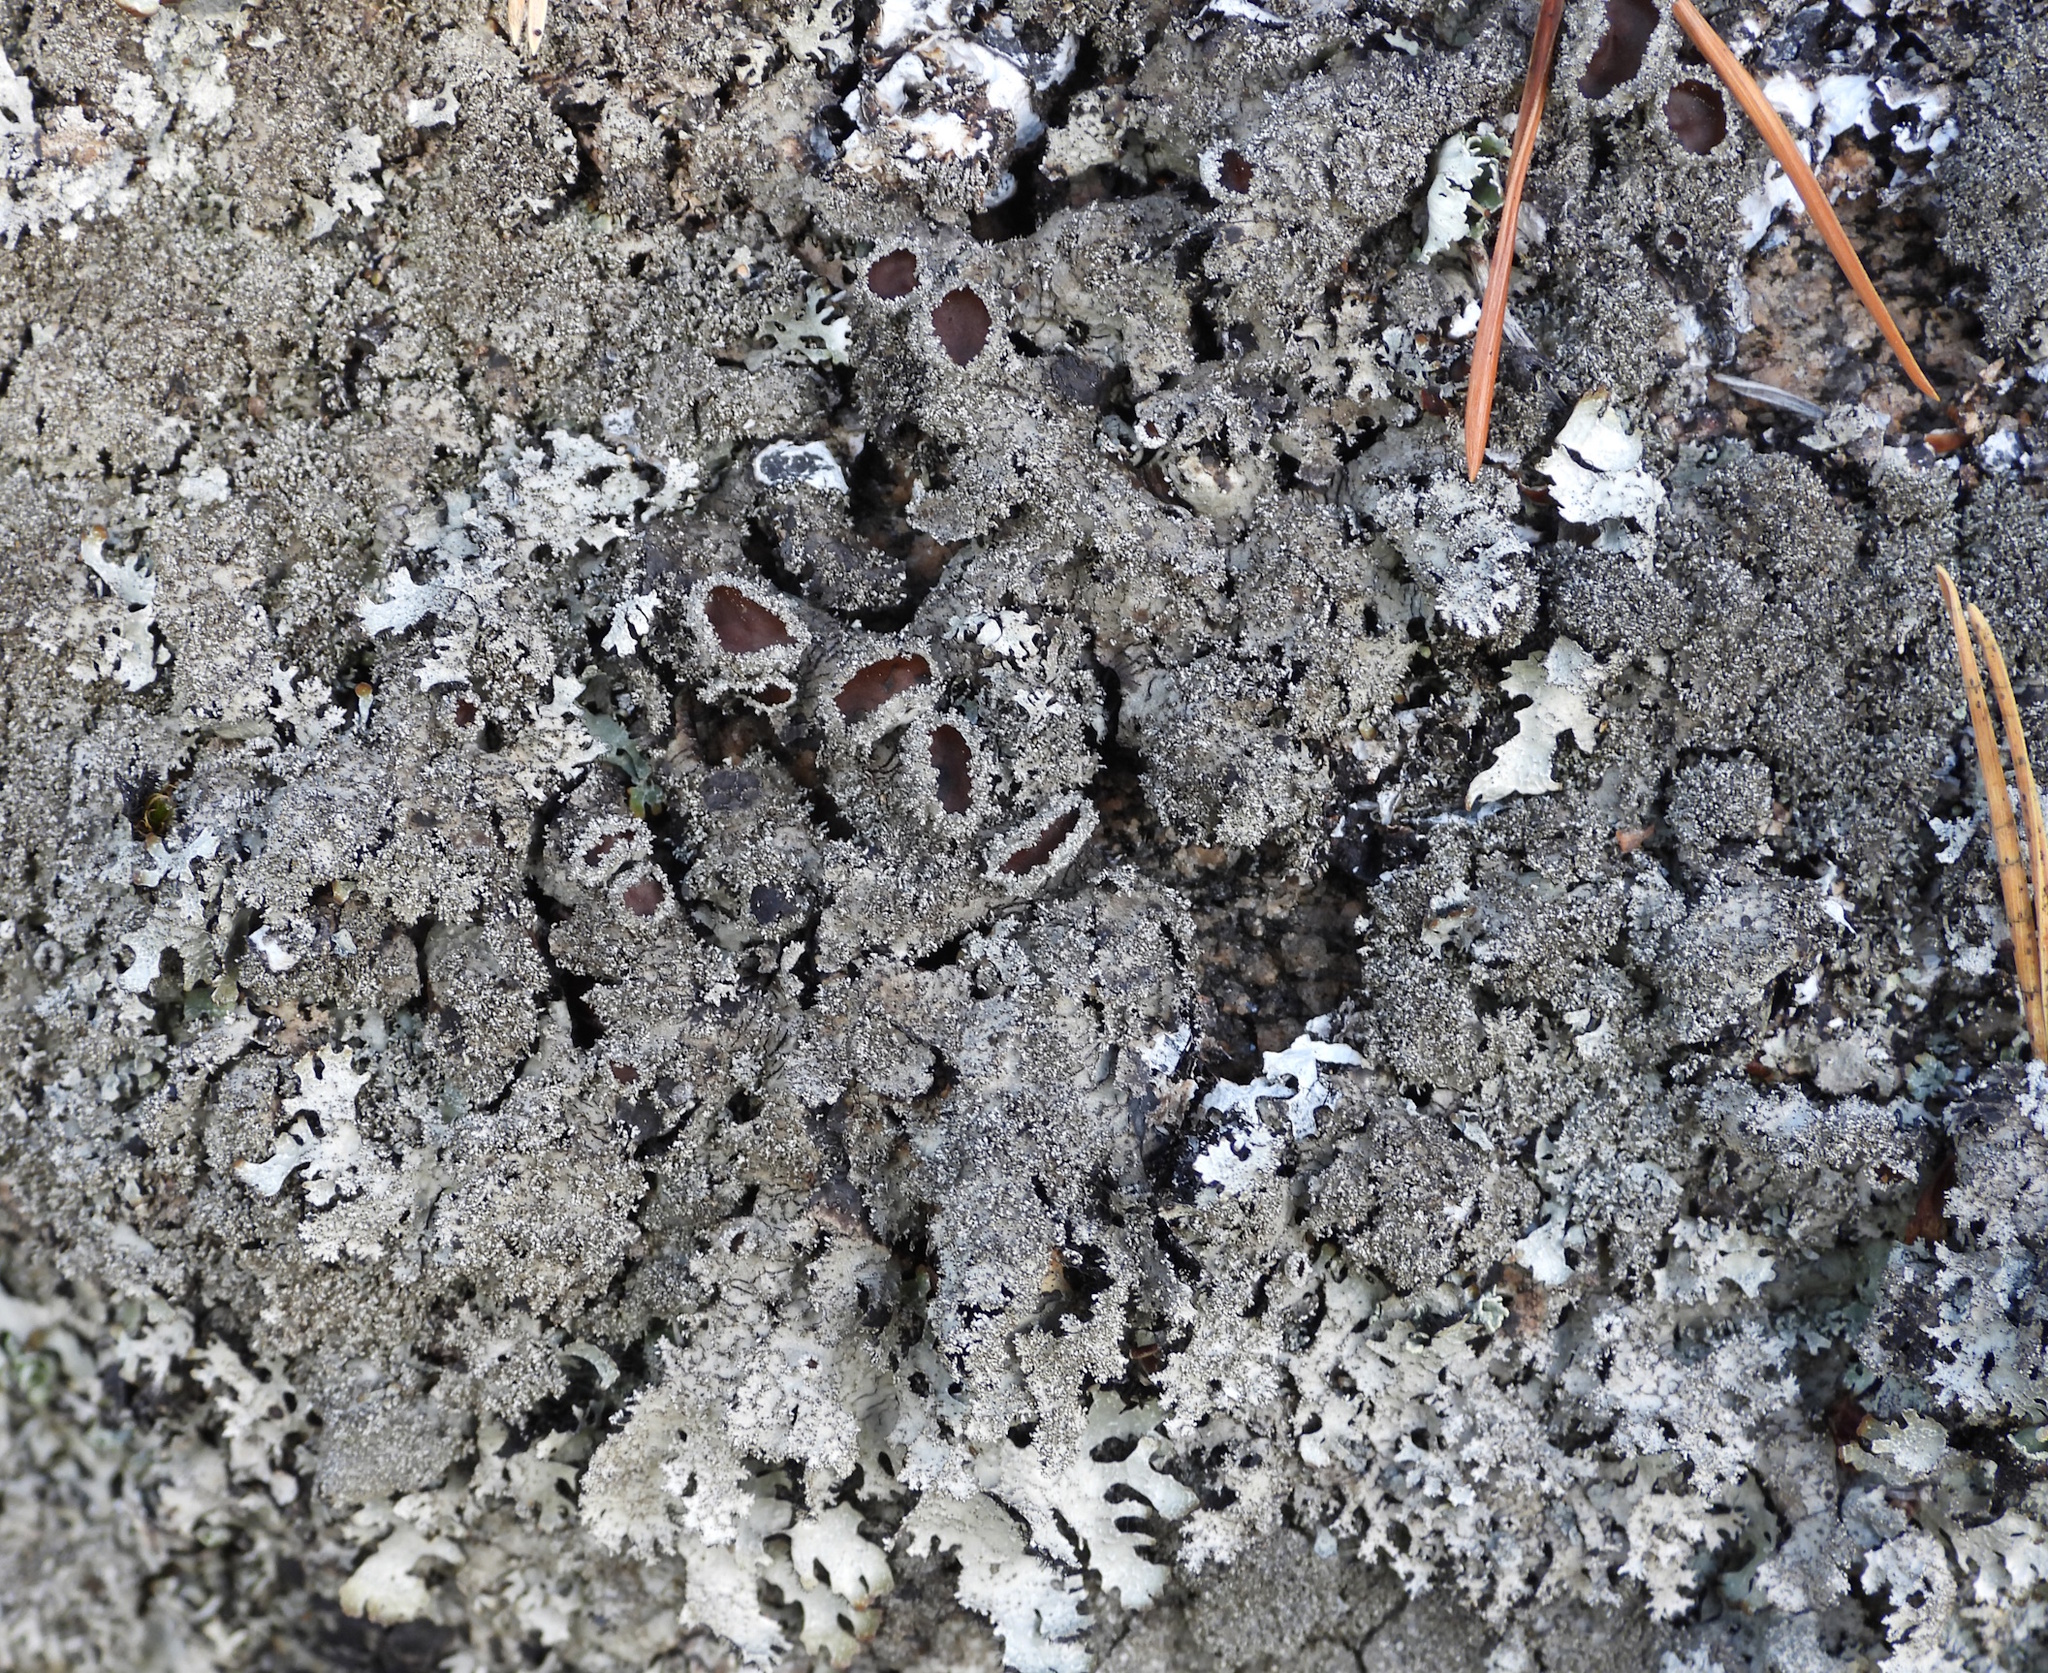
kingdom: Fungi
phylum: Ascomycota
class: Lecanoromycetes
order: Lecanorales
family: Parmeliaceae
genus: Parmelia
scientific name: Parmelia saxatilis
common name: Salted shield lichen
